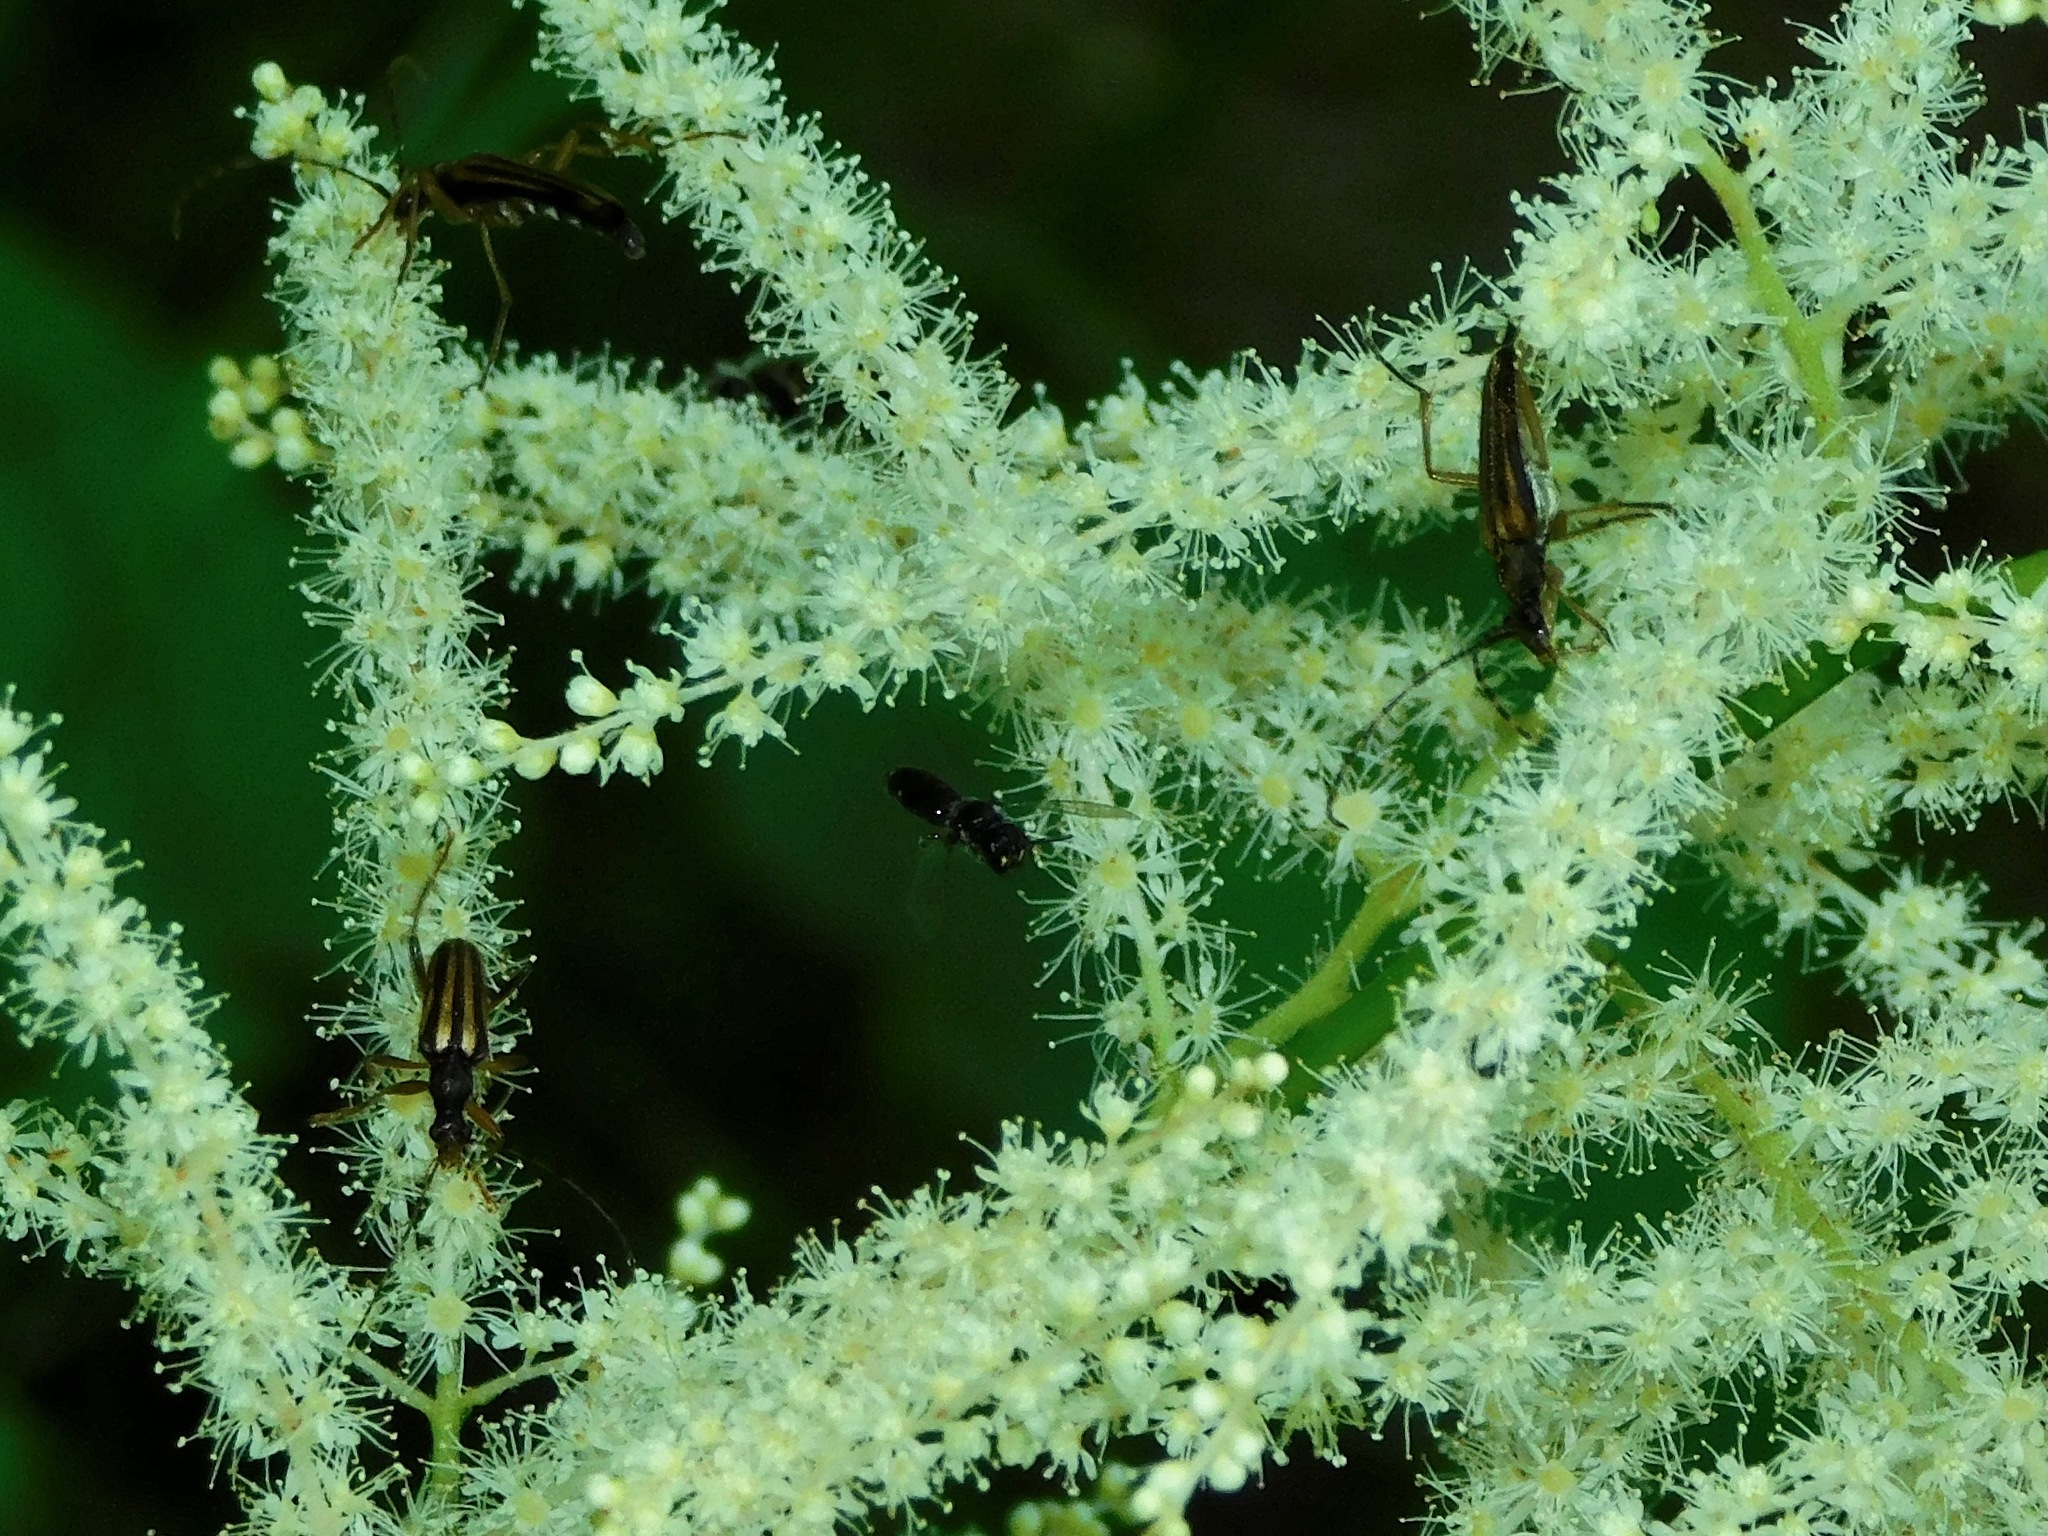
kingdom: Animalia
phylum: Arthropoda
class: Insecta
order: Coleoptera
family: Cerambycidae
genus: Metacmaeops
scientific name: Metacmaeops vittata
